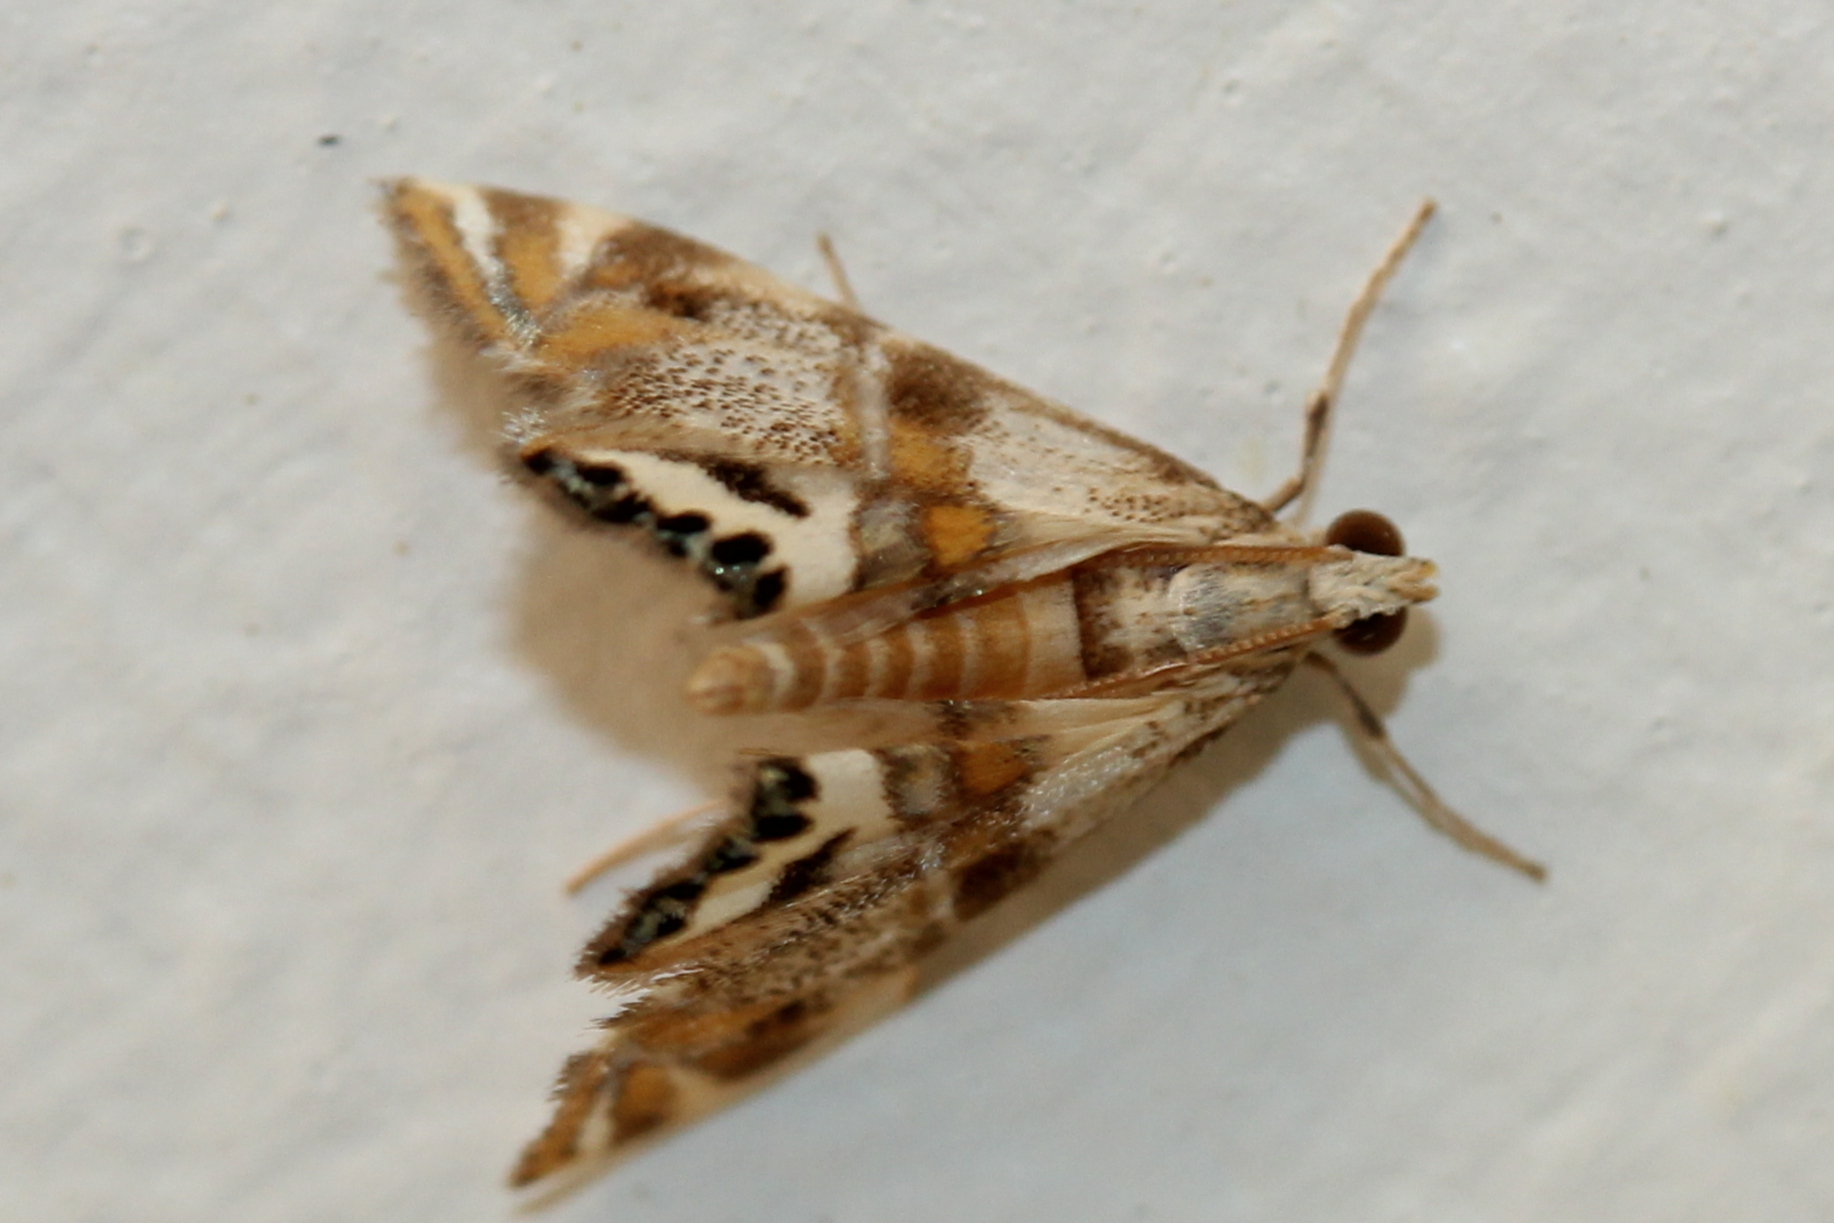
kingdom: Animalia
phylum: Arthropoda
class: Insecta
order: Lepidoptera
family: Crambidae
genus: Petrophila
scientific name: Petrophila bifascialis
